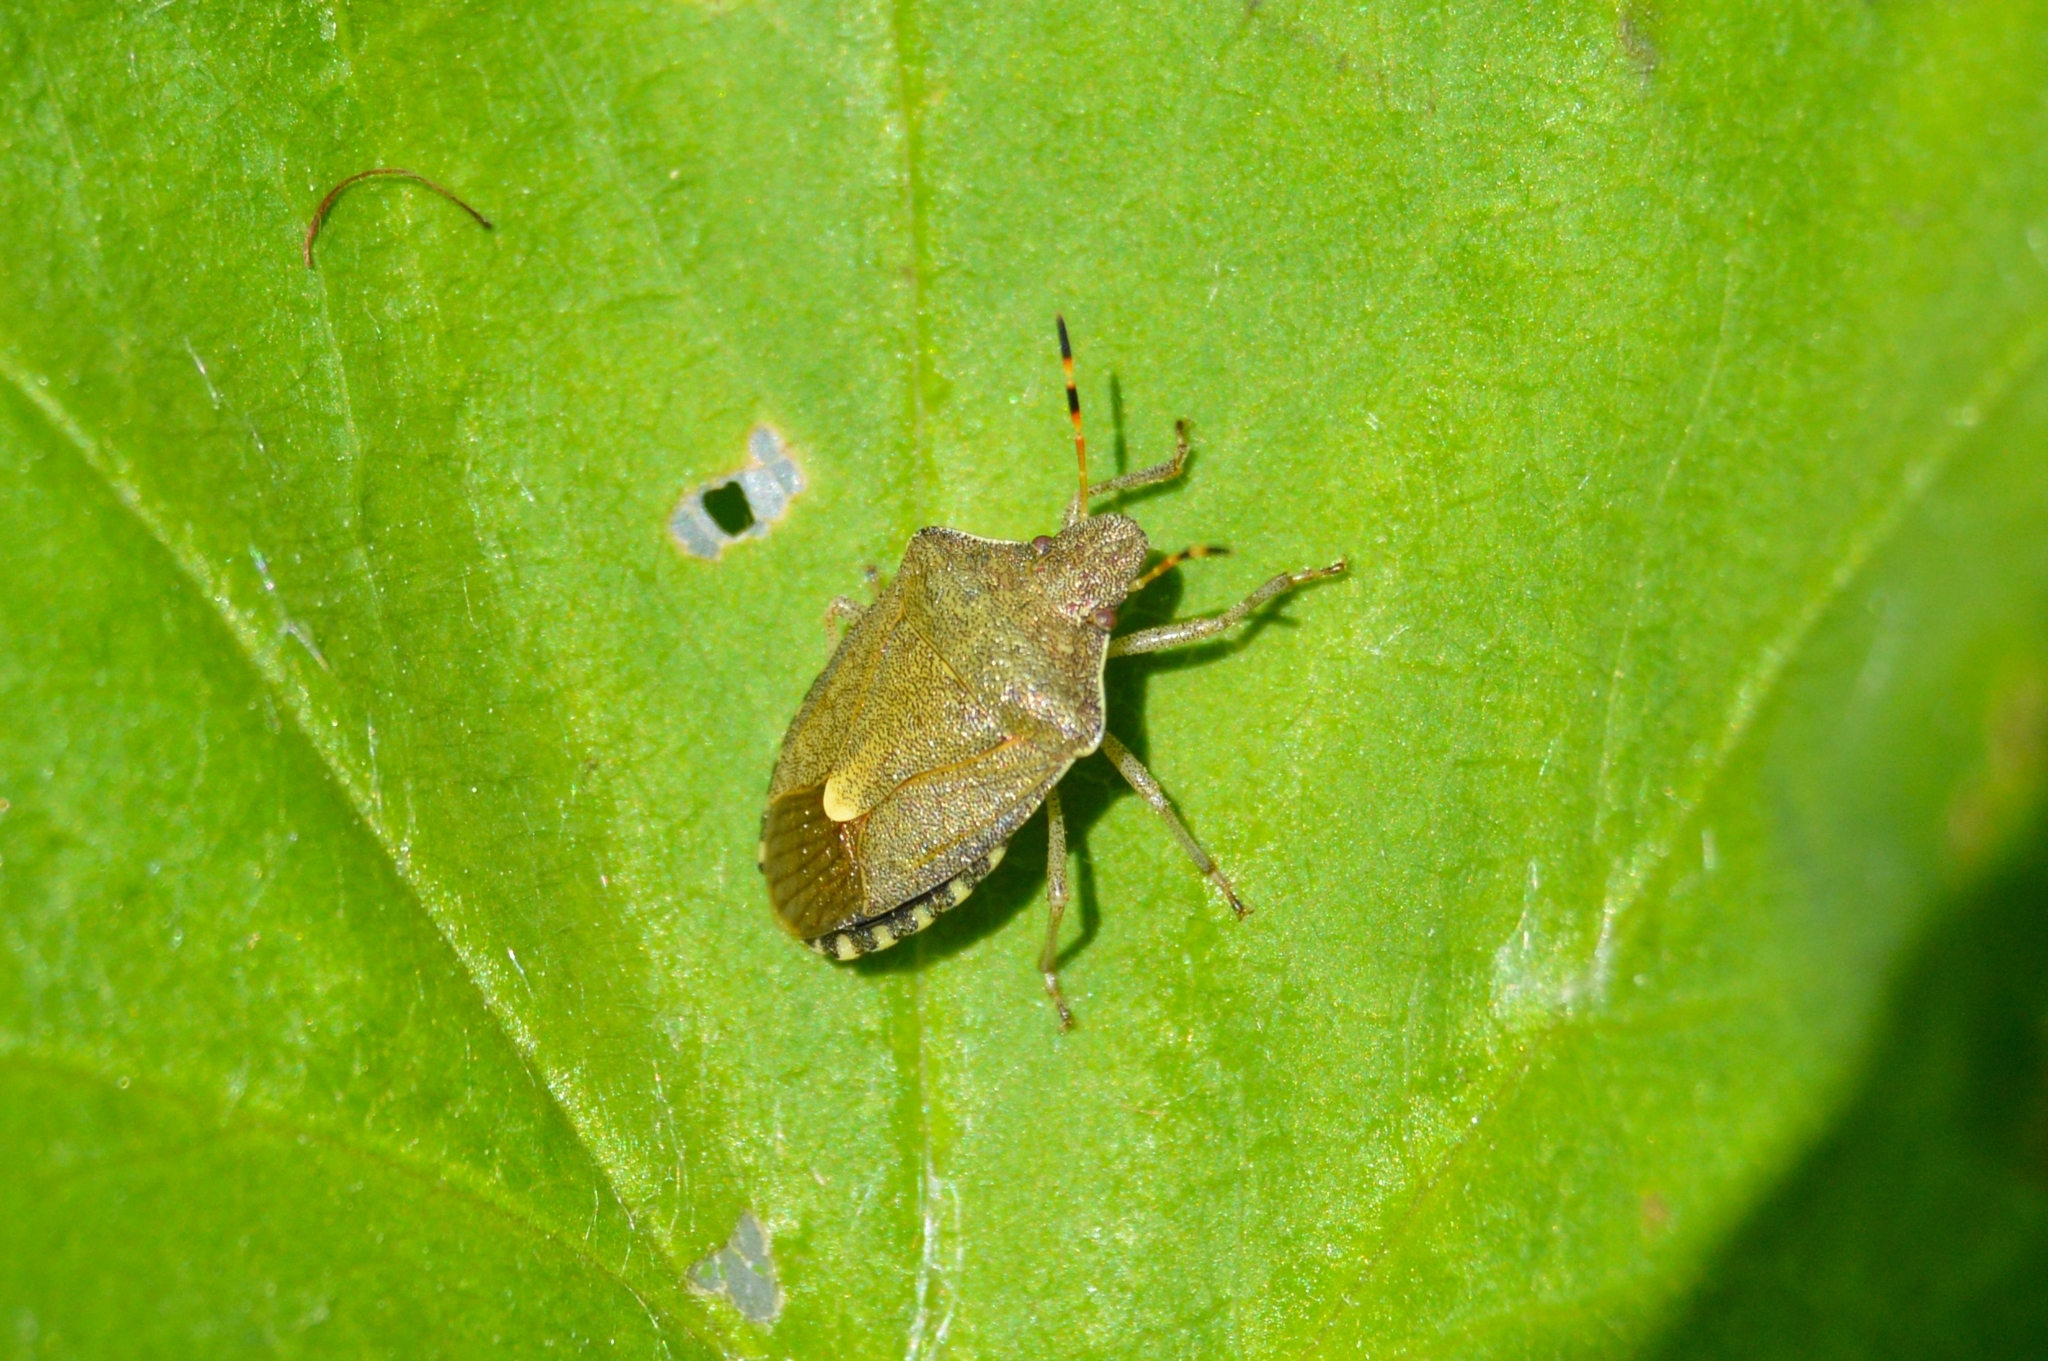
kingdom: Animalia
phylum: Arthropoda
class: Insecta
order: Hemiptera
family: Pentatomidae
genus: Holcostethus
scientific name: Holcostethus strictus
